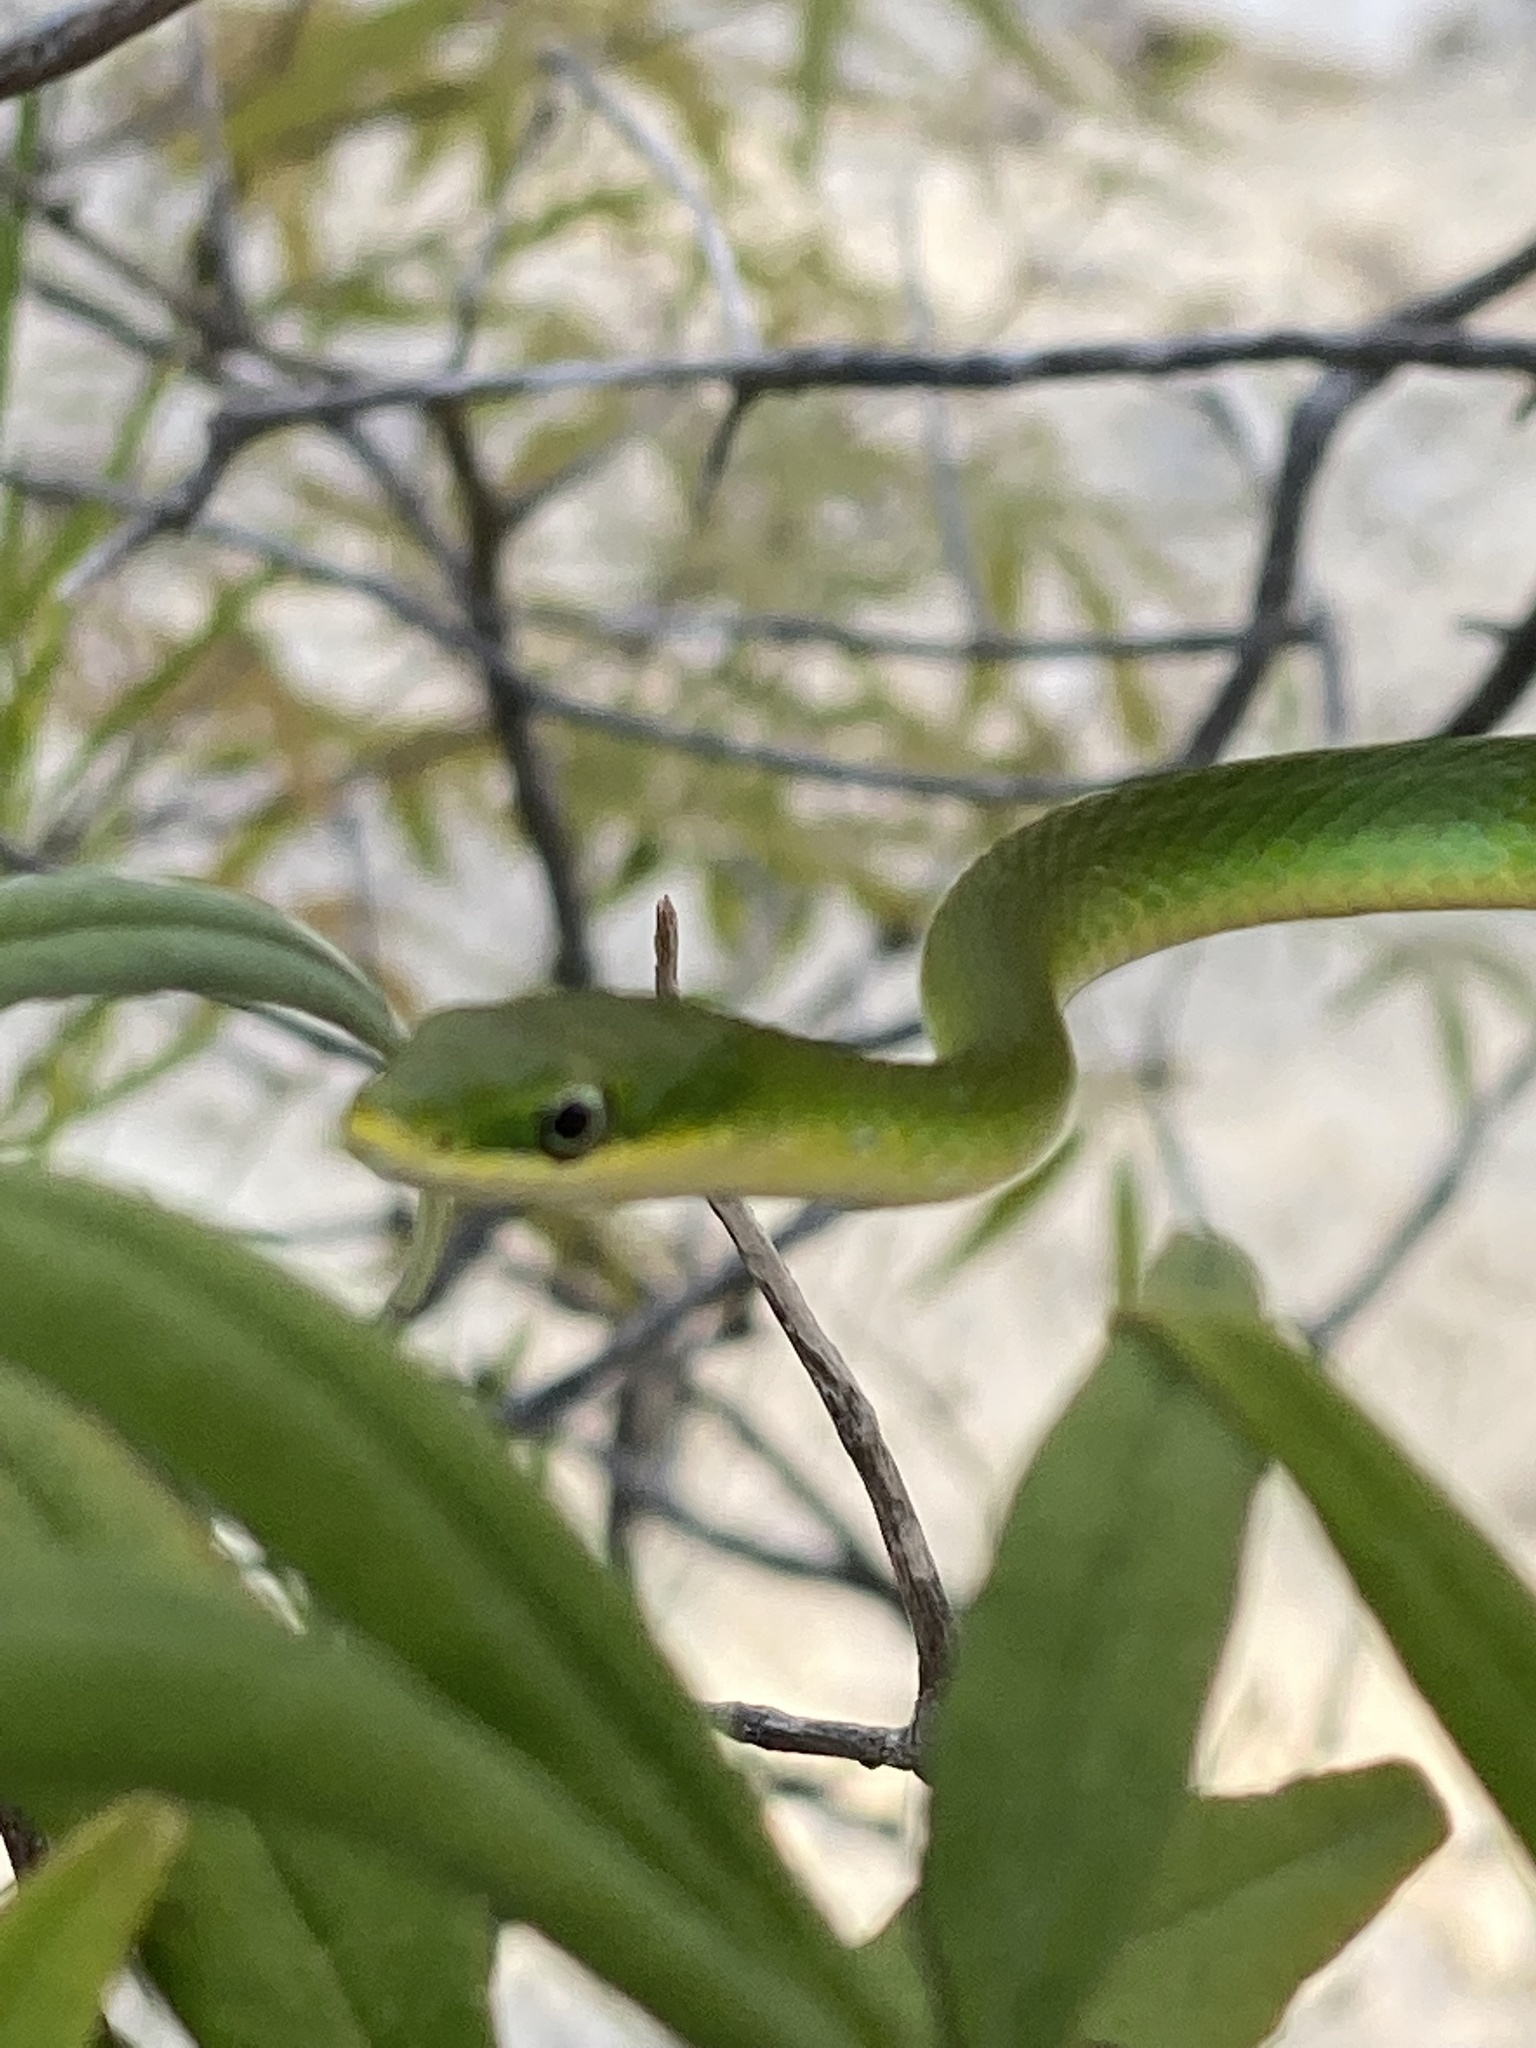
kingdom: Animalia
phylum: Chordata
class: Squamata
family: Colubridae
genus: Opheodrys
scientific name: Opheodrys aestivus
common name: Rough greensnake
